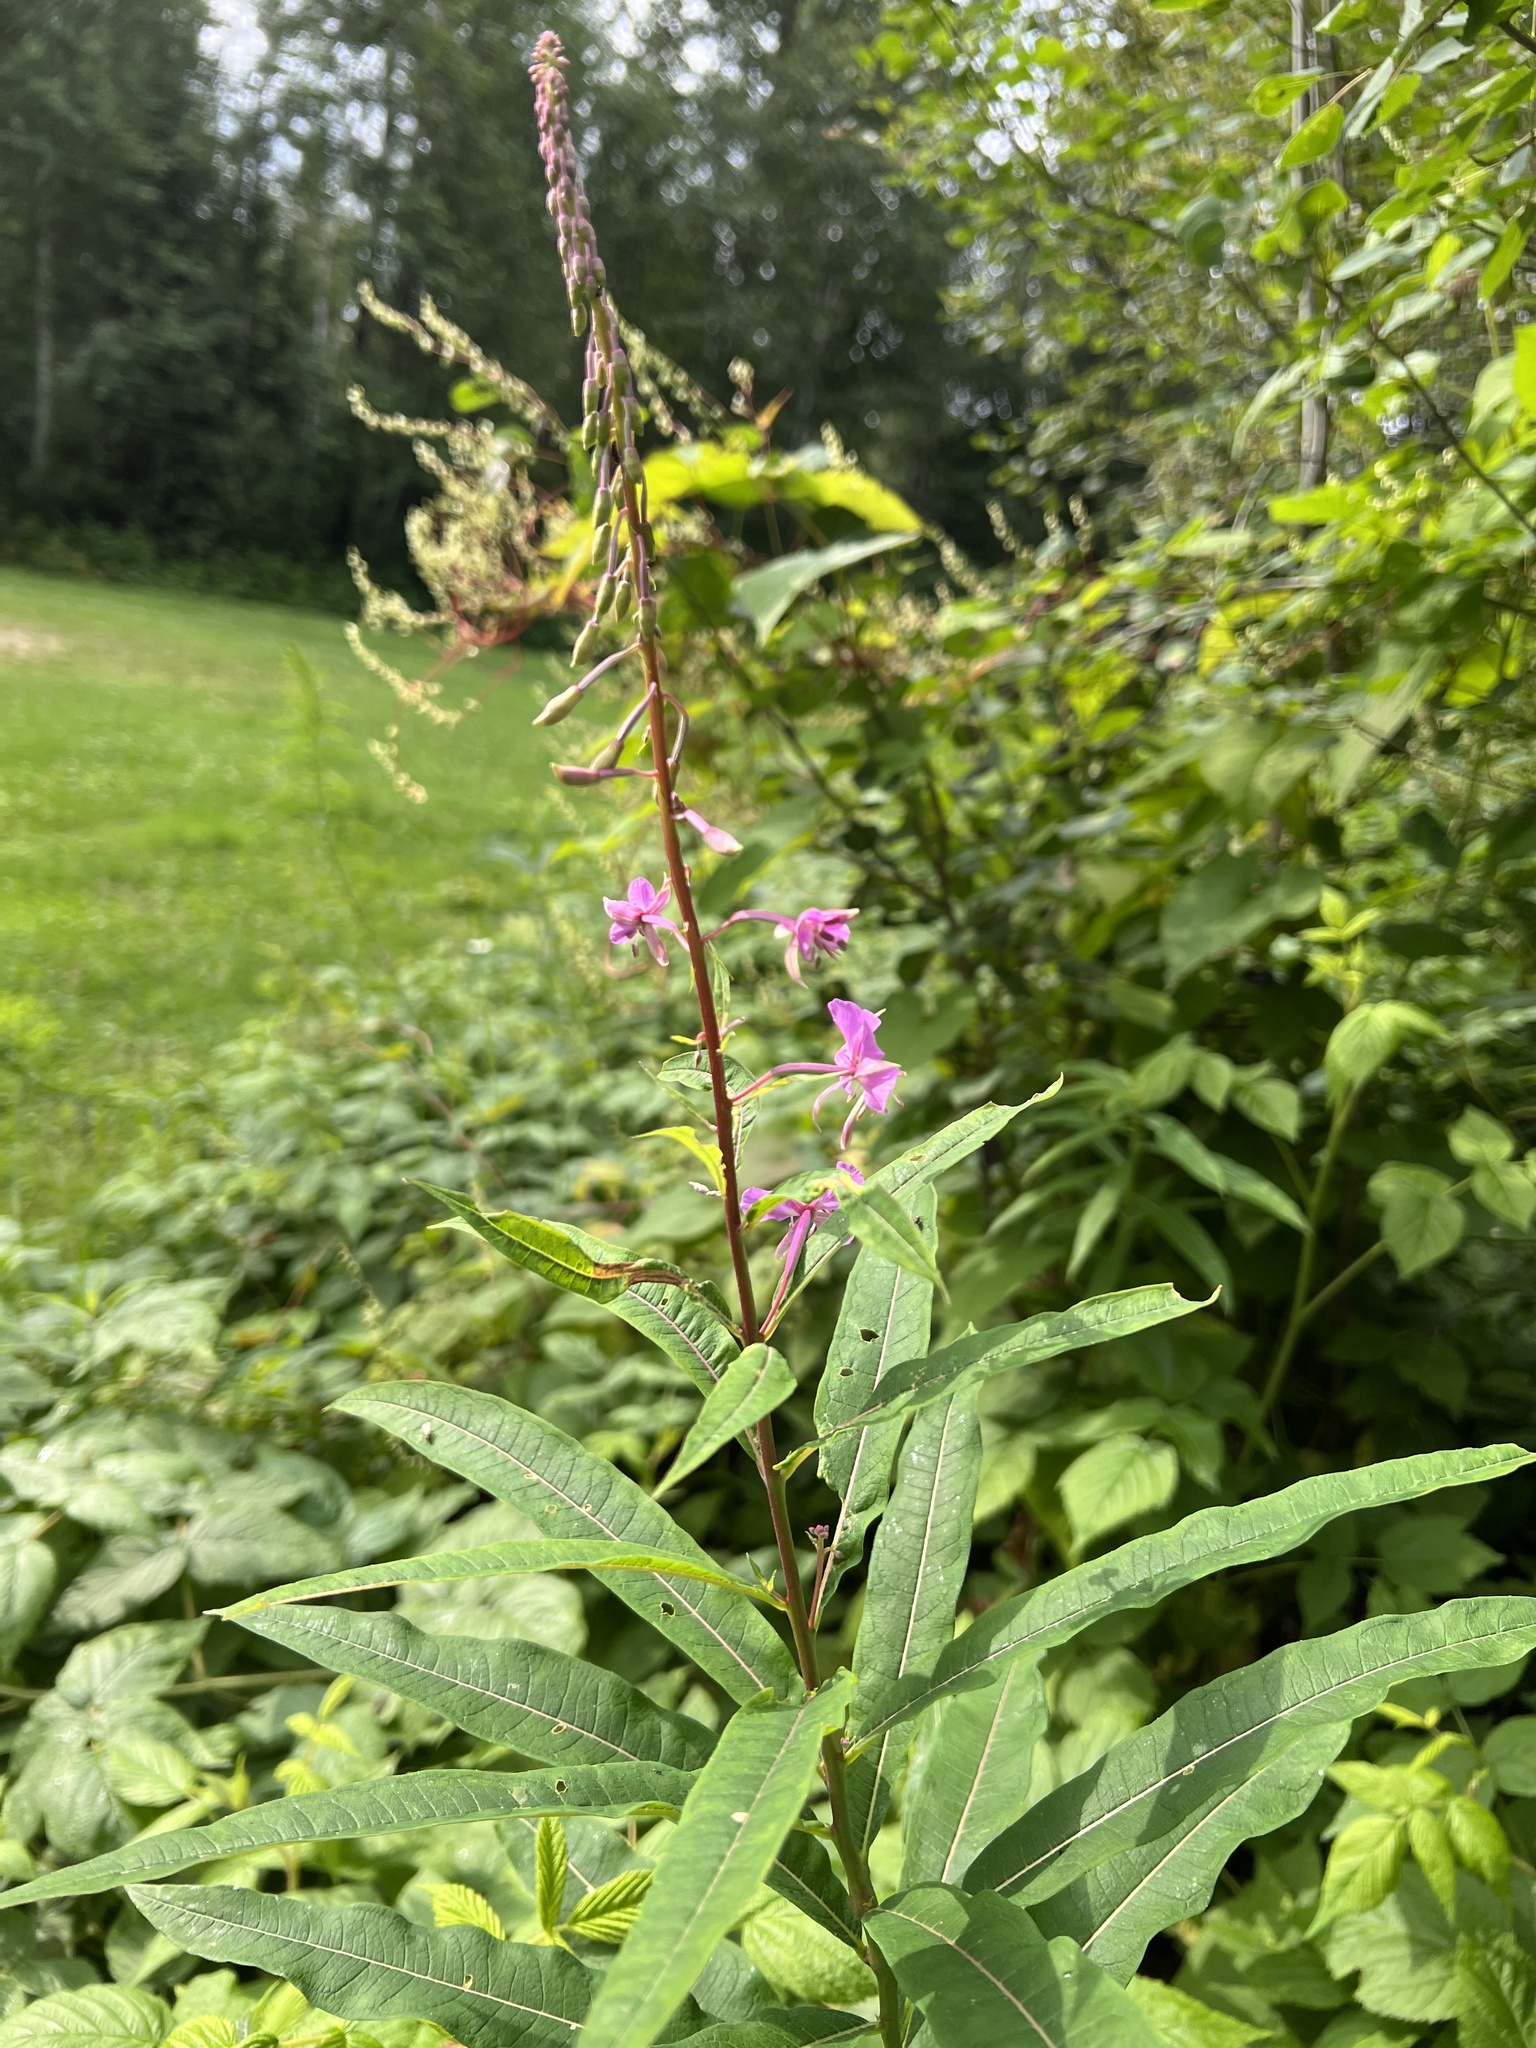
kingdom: Plantae
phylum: Tracheophyta
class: Magnoliopsida
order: Myrtales
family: Onagraceae
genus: Chamaenerion
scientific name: Chamaenerion angustifolium
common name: Fireweed
